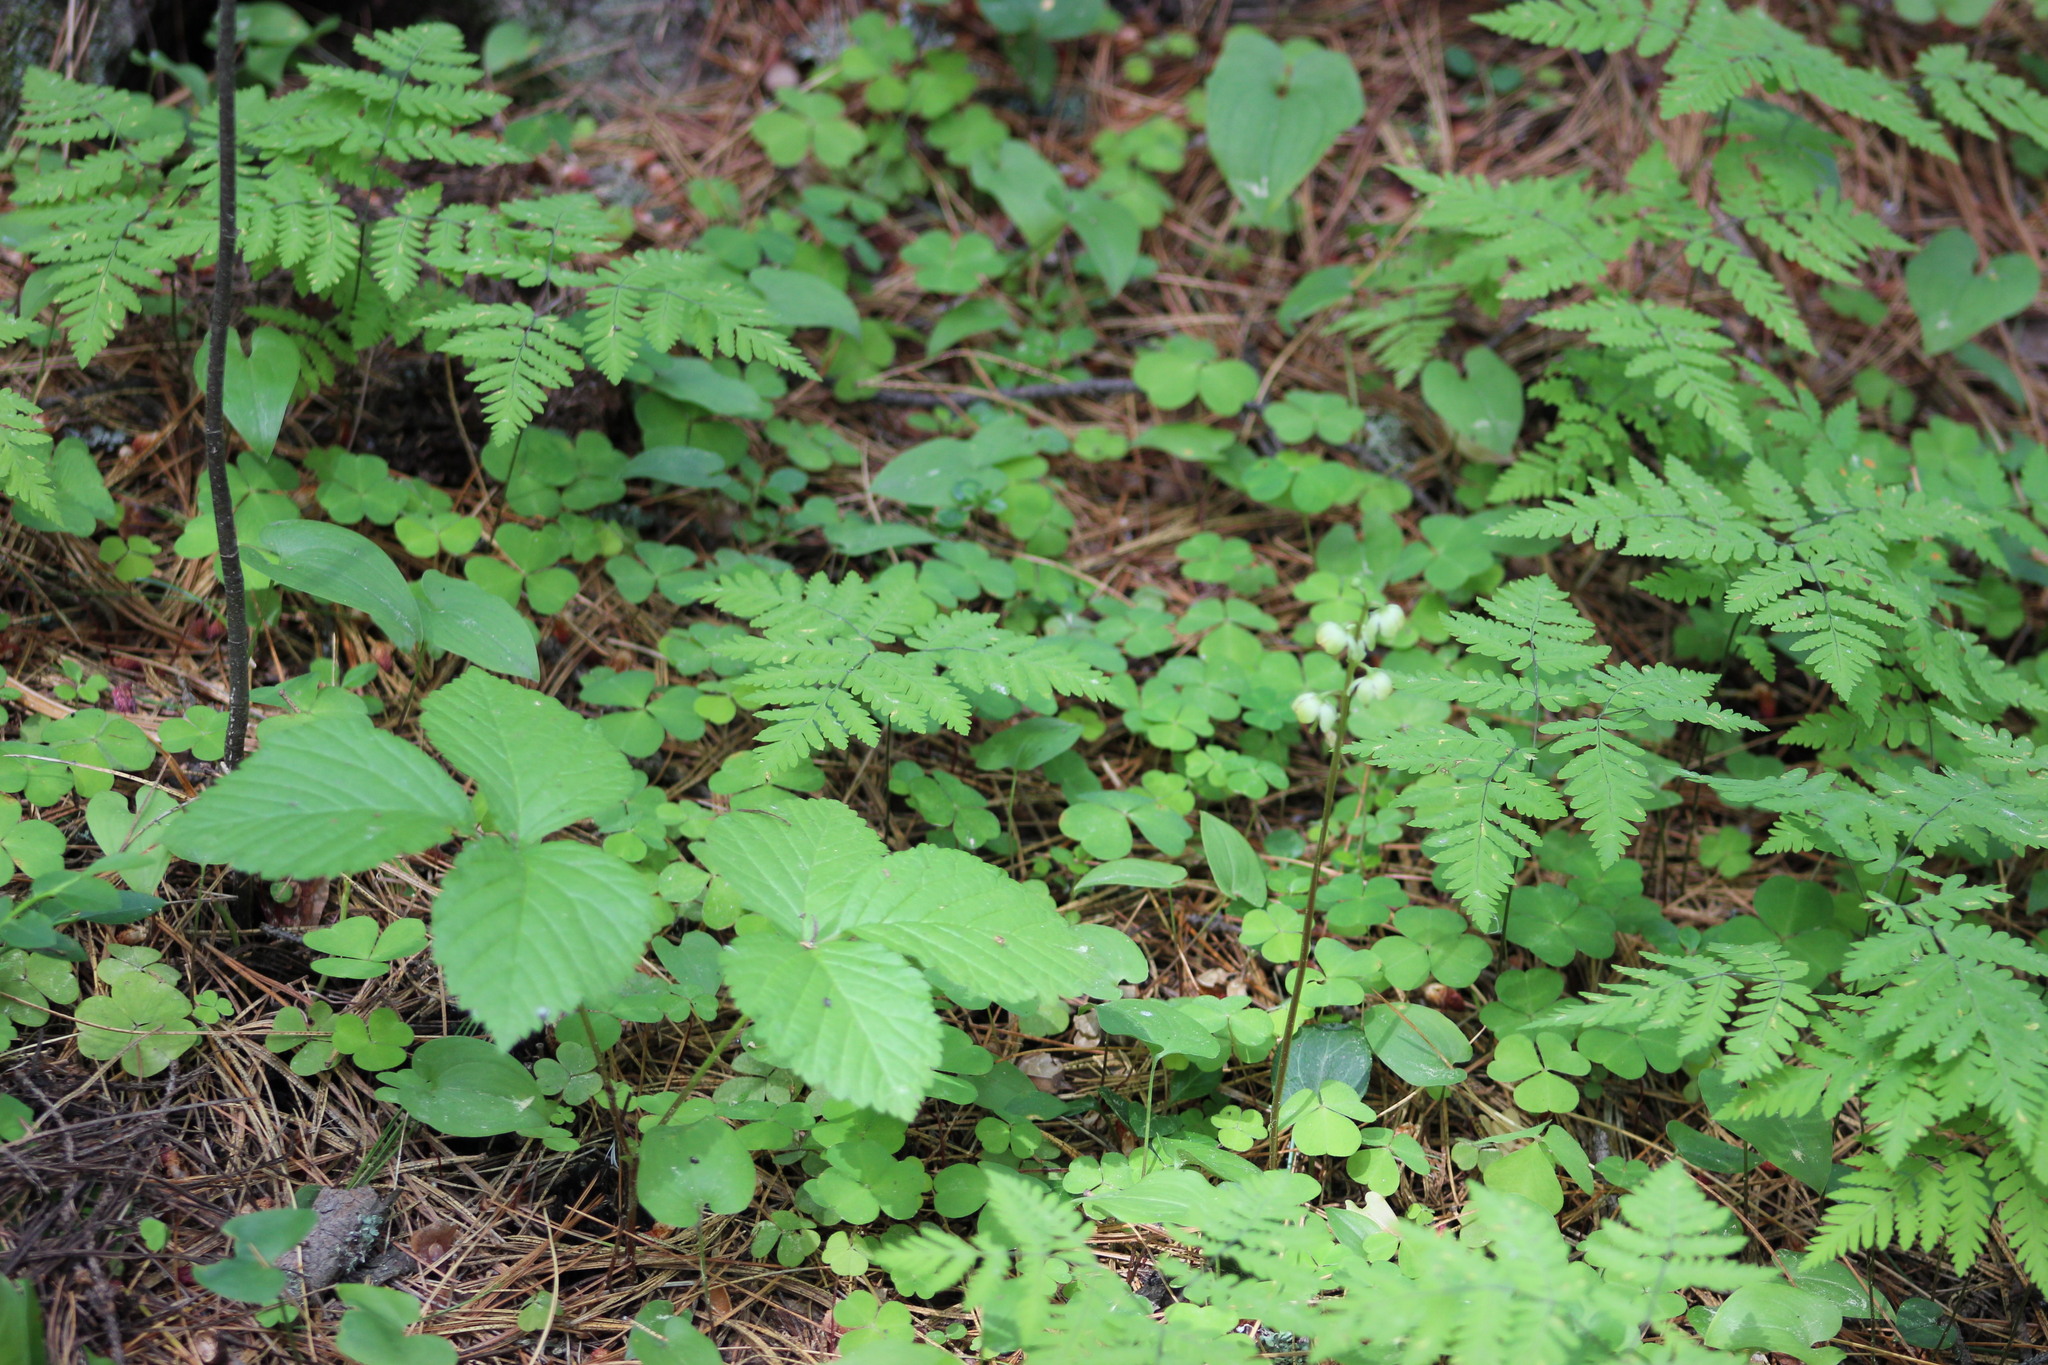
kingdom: Plantae
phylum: Tracheophyta
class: Magnoliopsida
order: Ericales
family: Ericaceae
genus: Pyrola
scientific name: Pyrola chlorantha
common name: Green wintergreen
